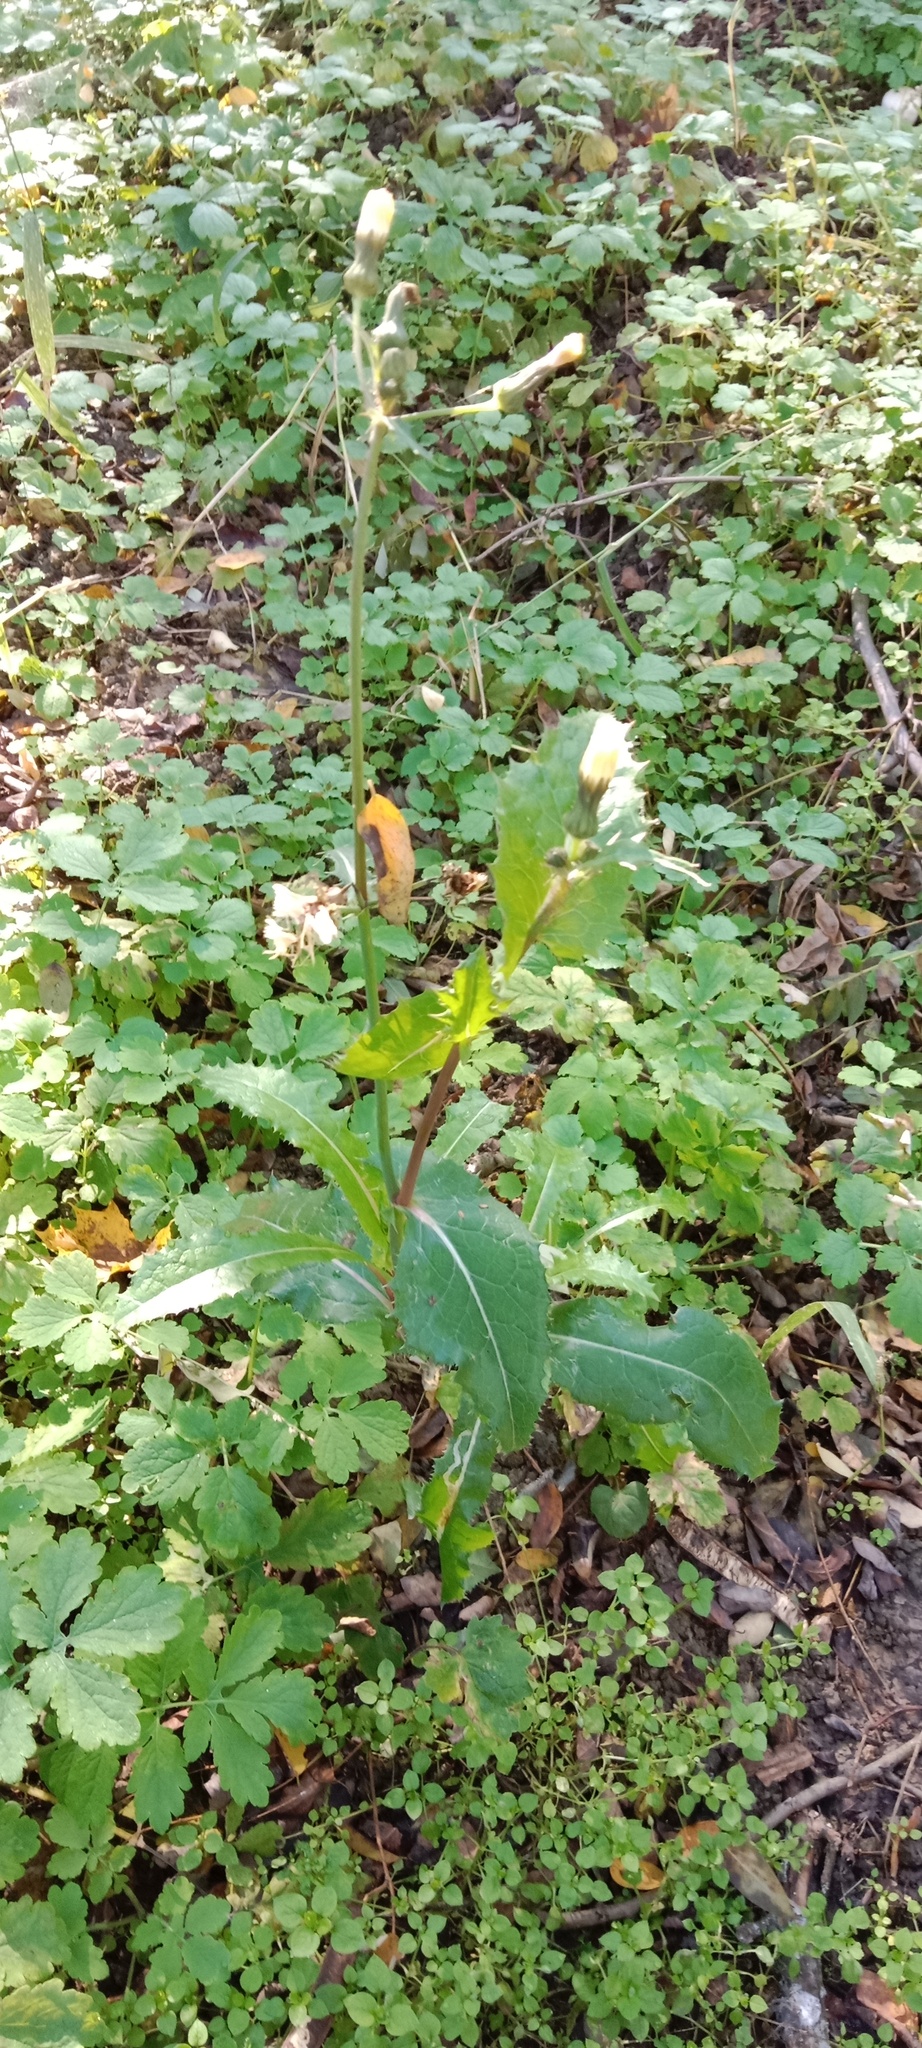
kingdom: Plantae
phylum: Tracheophyta
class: Magnoliopsida
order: Asterales
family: Asteraceae
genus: Sonchus
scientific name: Sonchus oleraceus
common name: Common sowthistle
